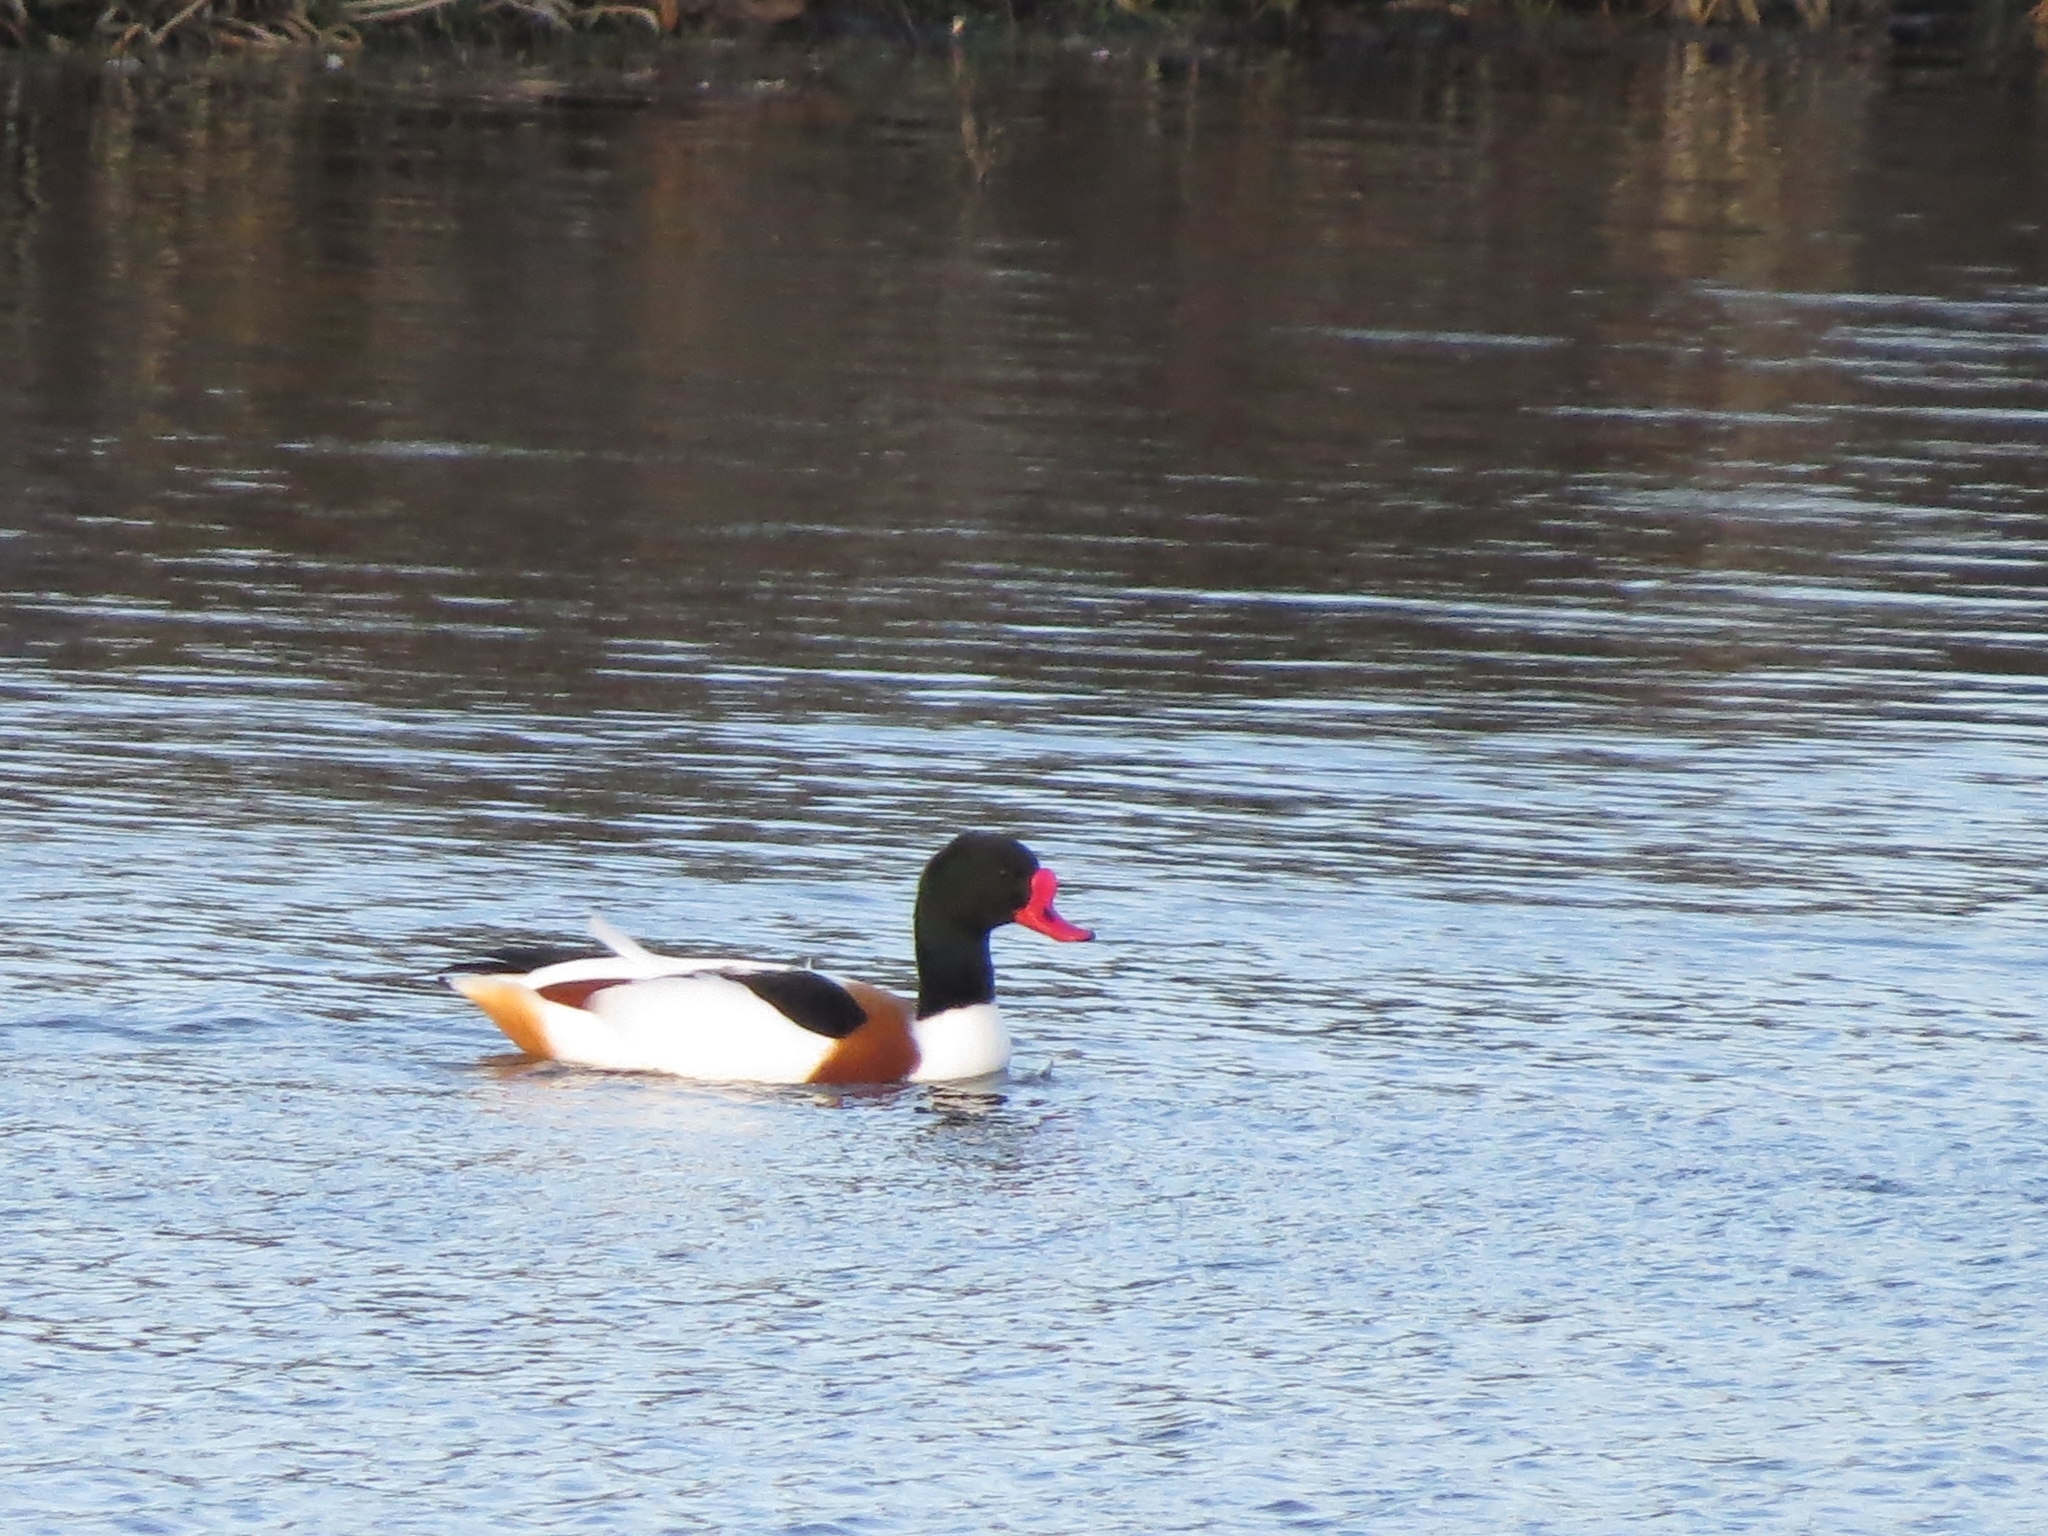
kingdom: Animalia
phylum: Chordata
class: Aves
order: Anseriformes
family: Anatidae
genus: Tadorna
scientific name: Tadorna tadorna
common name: Common shelduck
